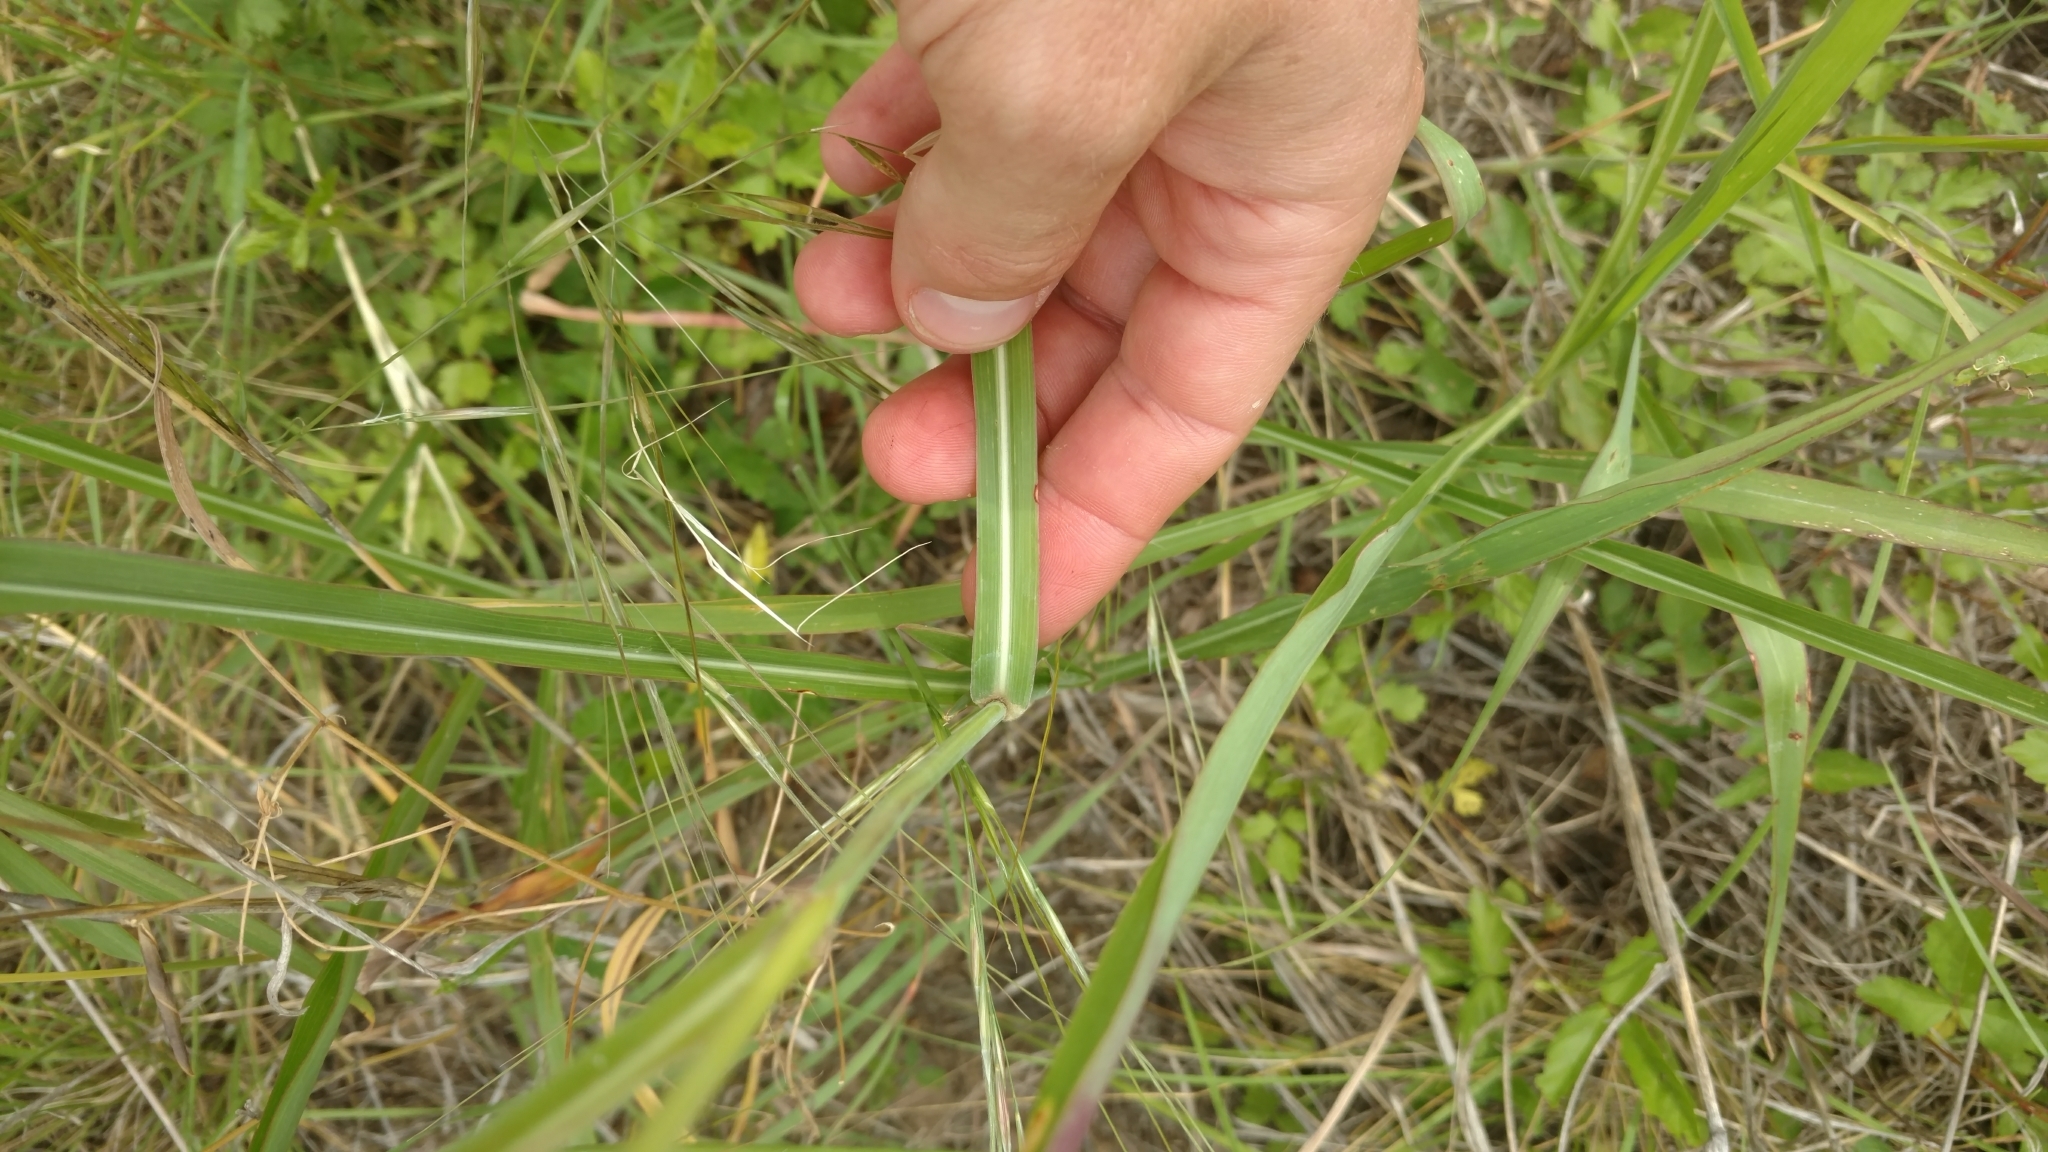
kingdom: Plantae
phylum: Tracheophyta
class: Liliopsida
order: Poales
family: Poaceae
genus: Sorghum
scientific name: Sorghum halepense
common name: Johnson-grass
